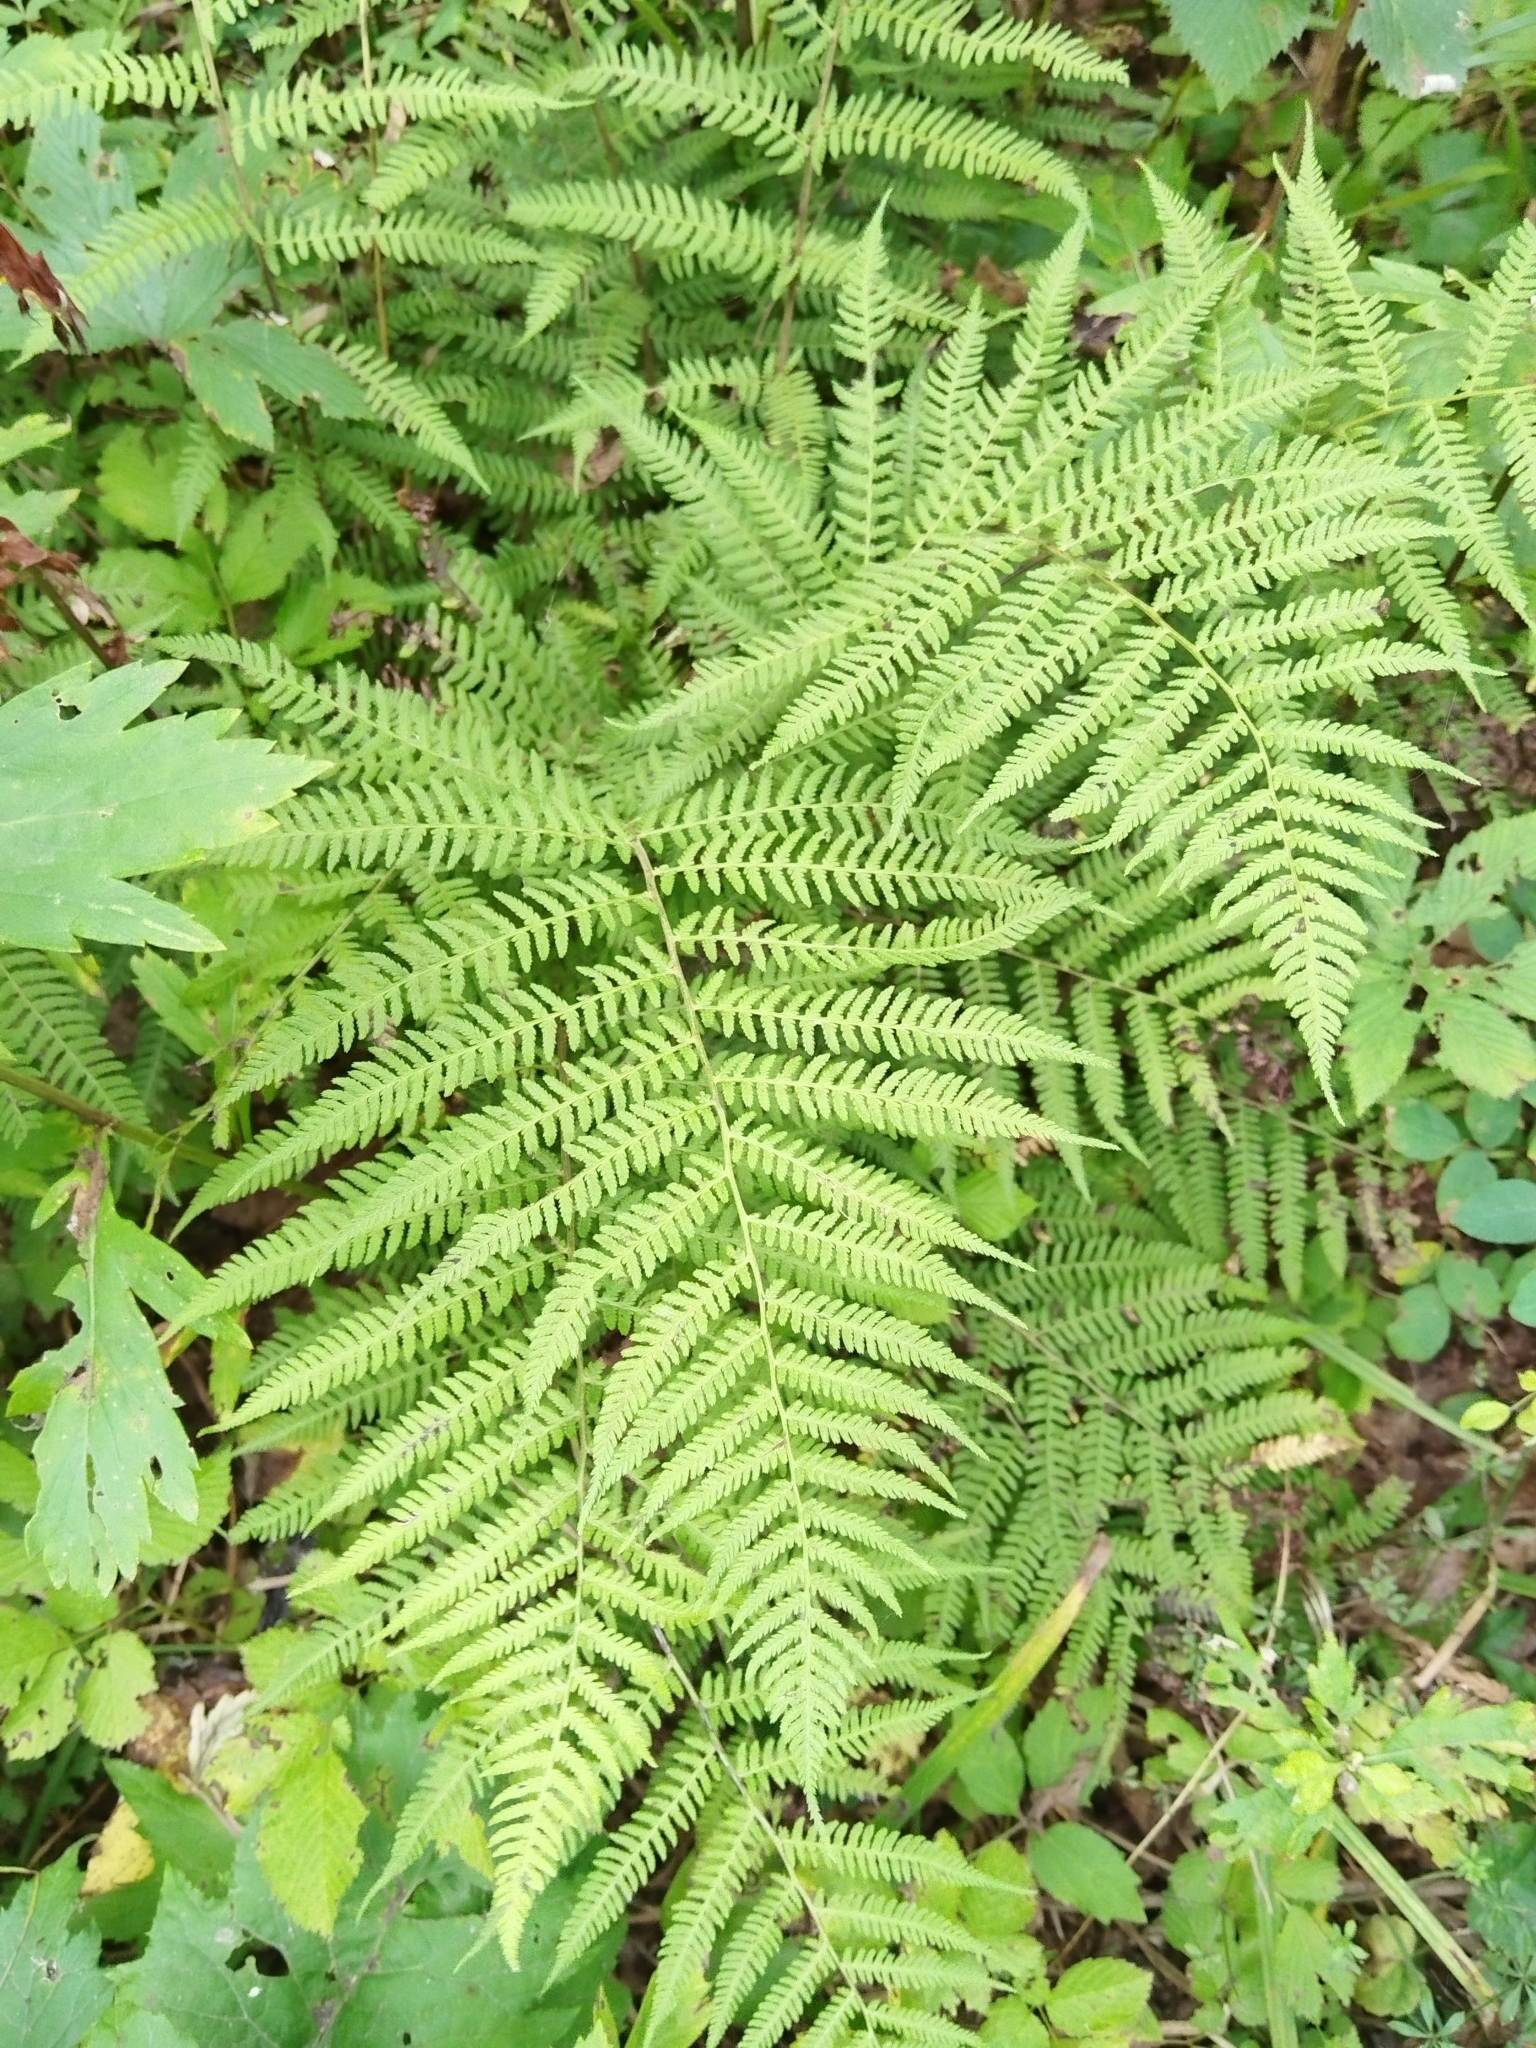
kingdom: Plantae
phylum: Tracheophyta
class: Polypodiopsida
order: Polypodiales
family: Athyriaceae
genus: Athyrium
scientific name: Athyrium filix-femina
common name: Lady fern
